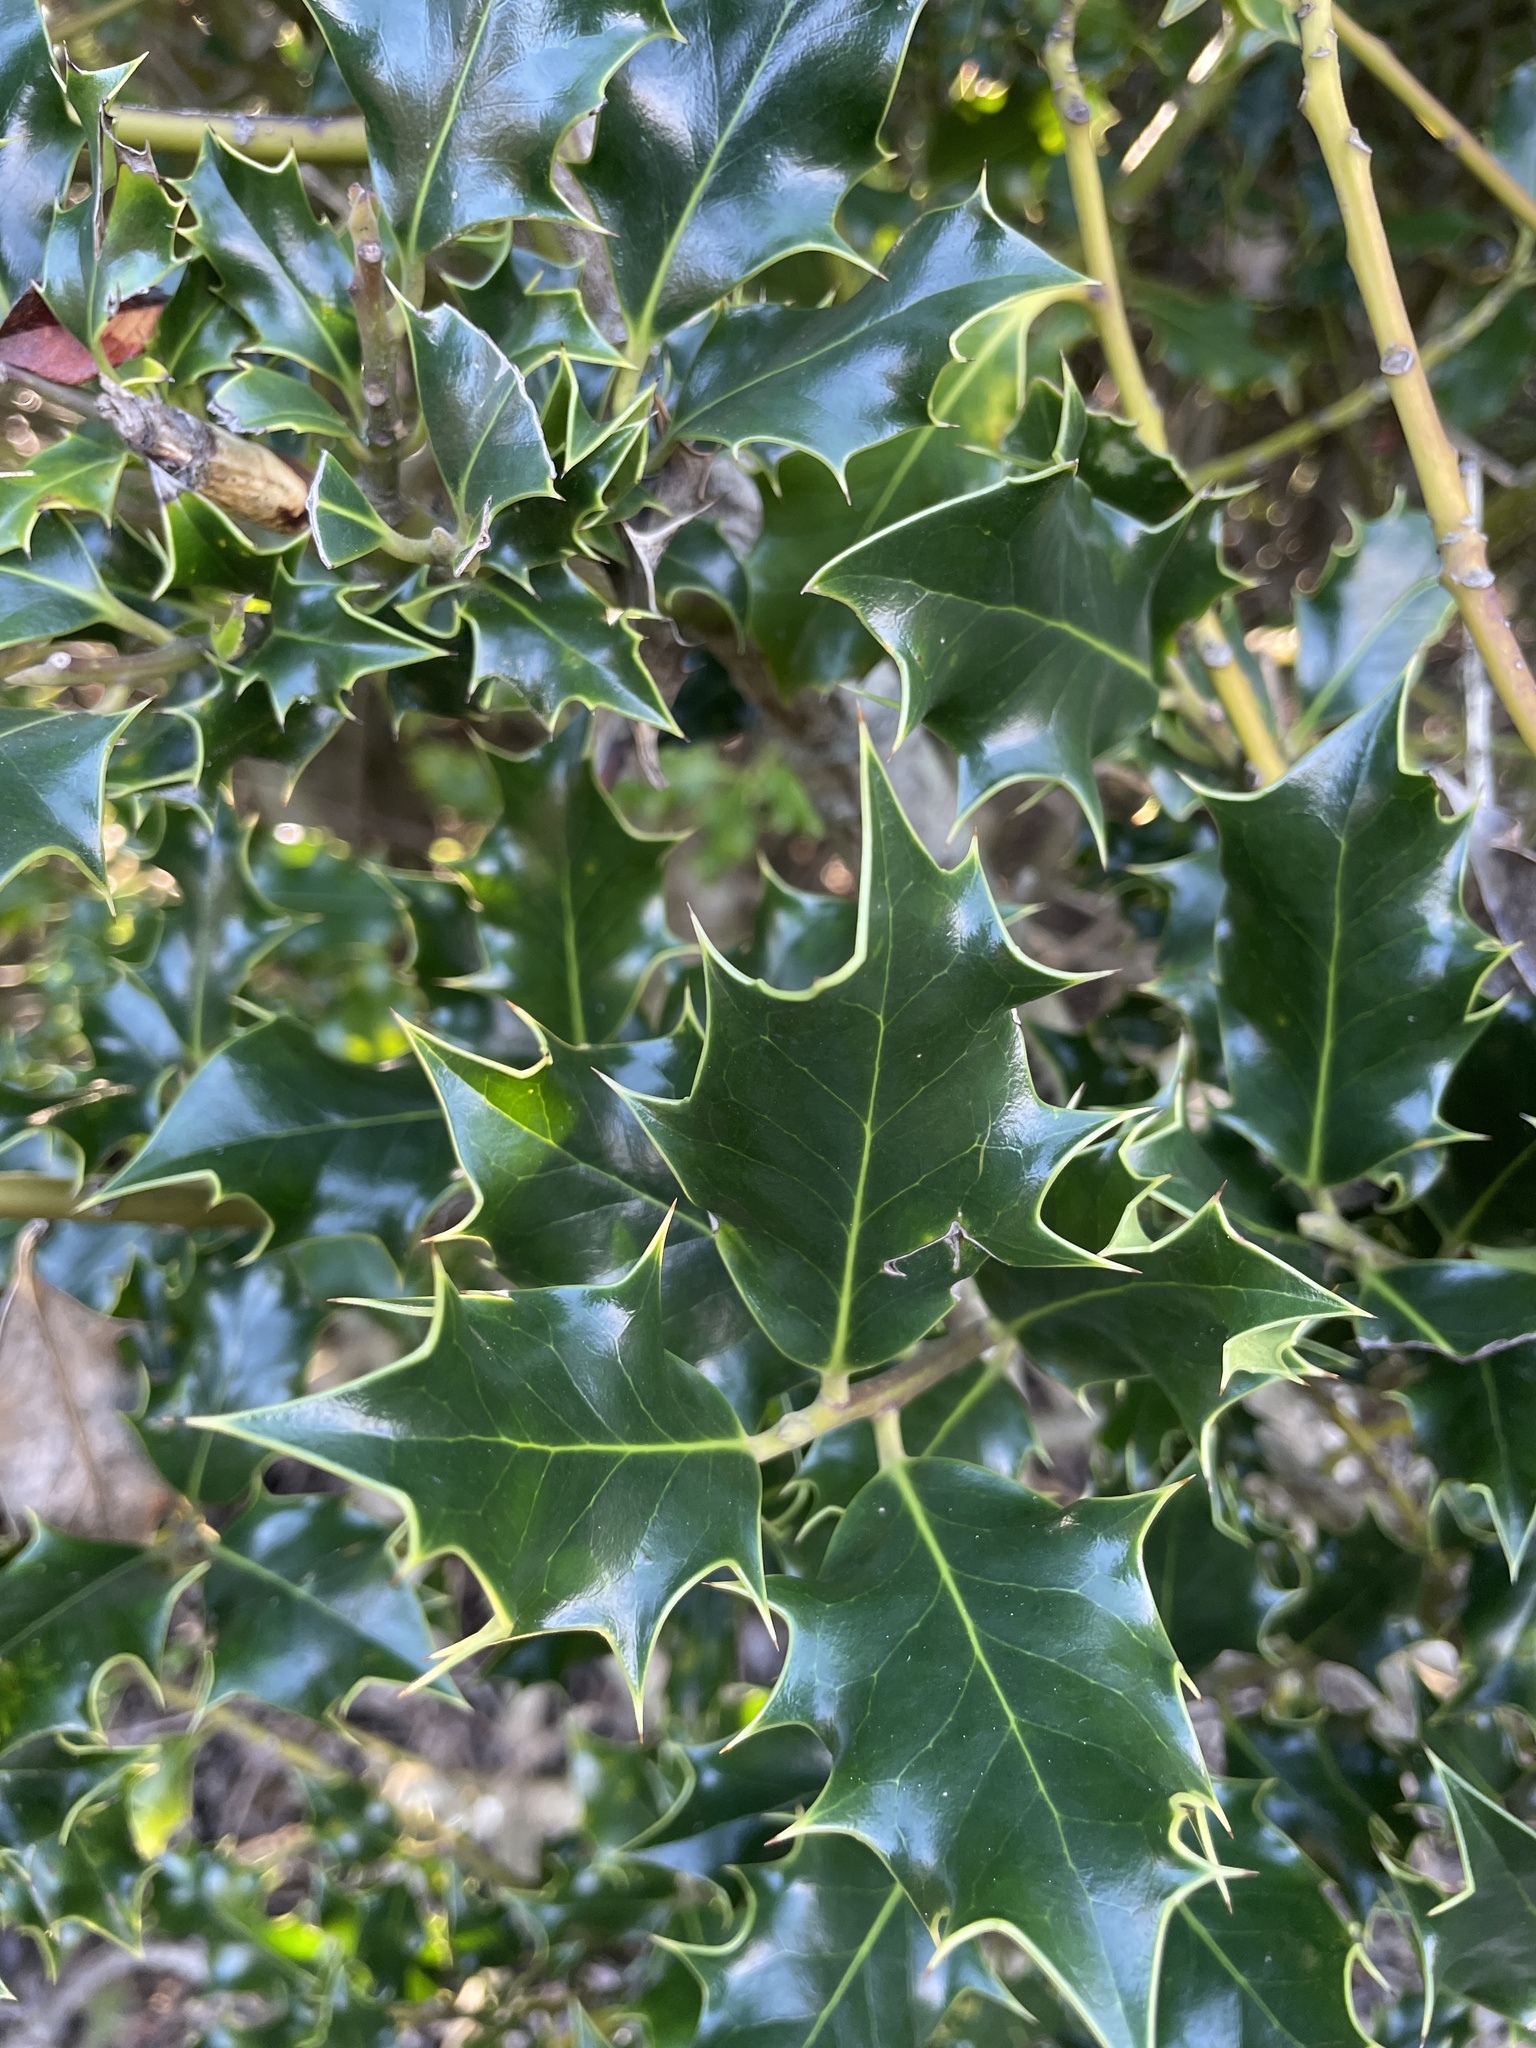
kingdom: Plantae
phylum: Tracheophyta
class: Magnoliopsida
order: Aquifoliales
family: Aquifoliaceae
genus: Ilex
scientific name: Ilex aquifolium
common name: English holly
